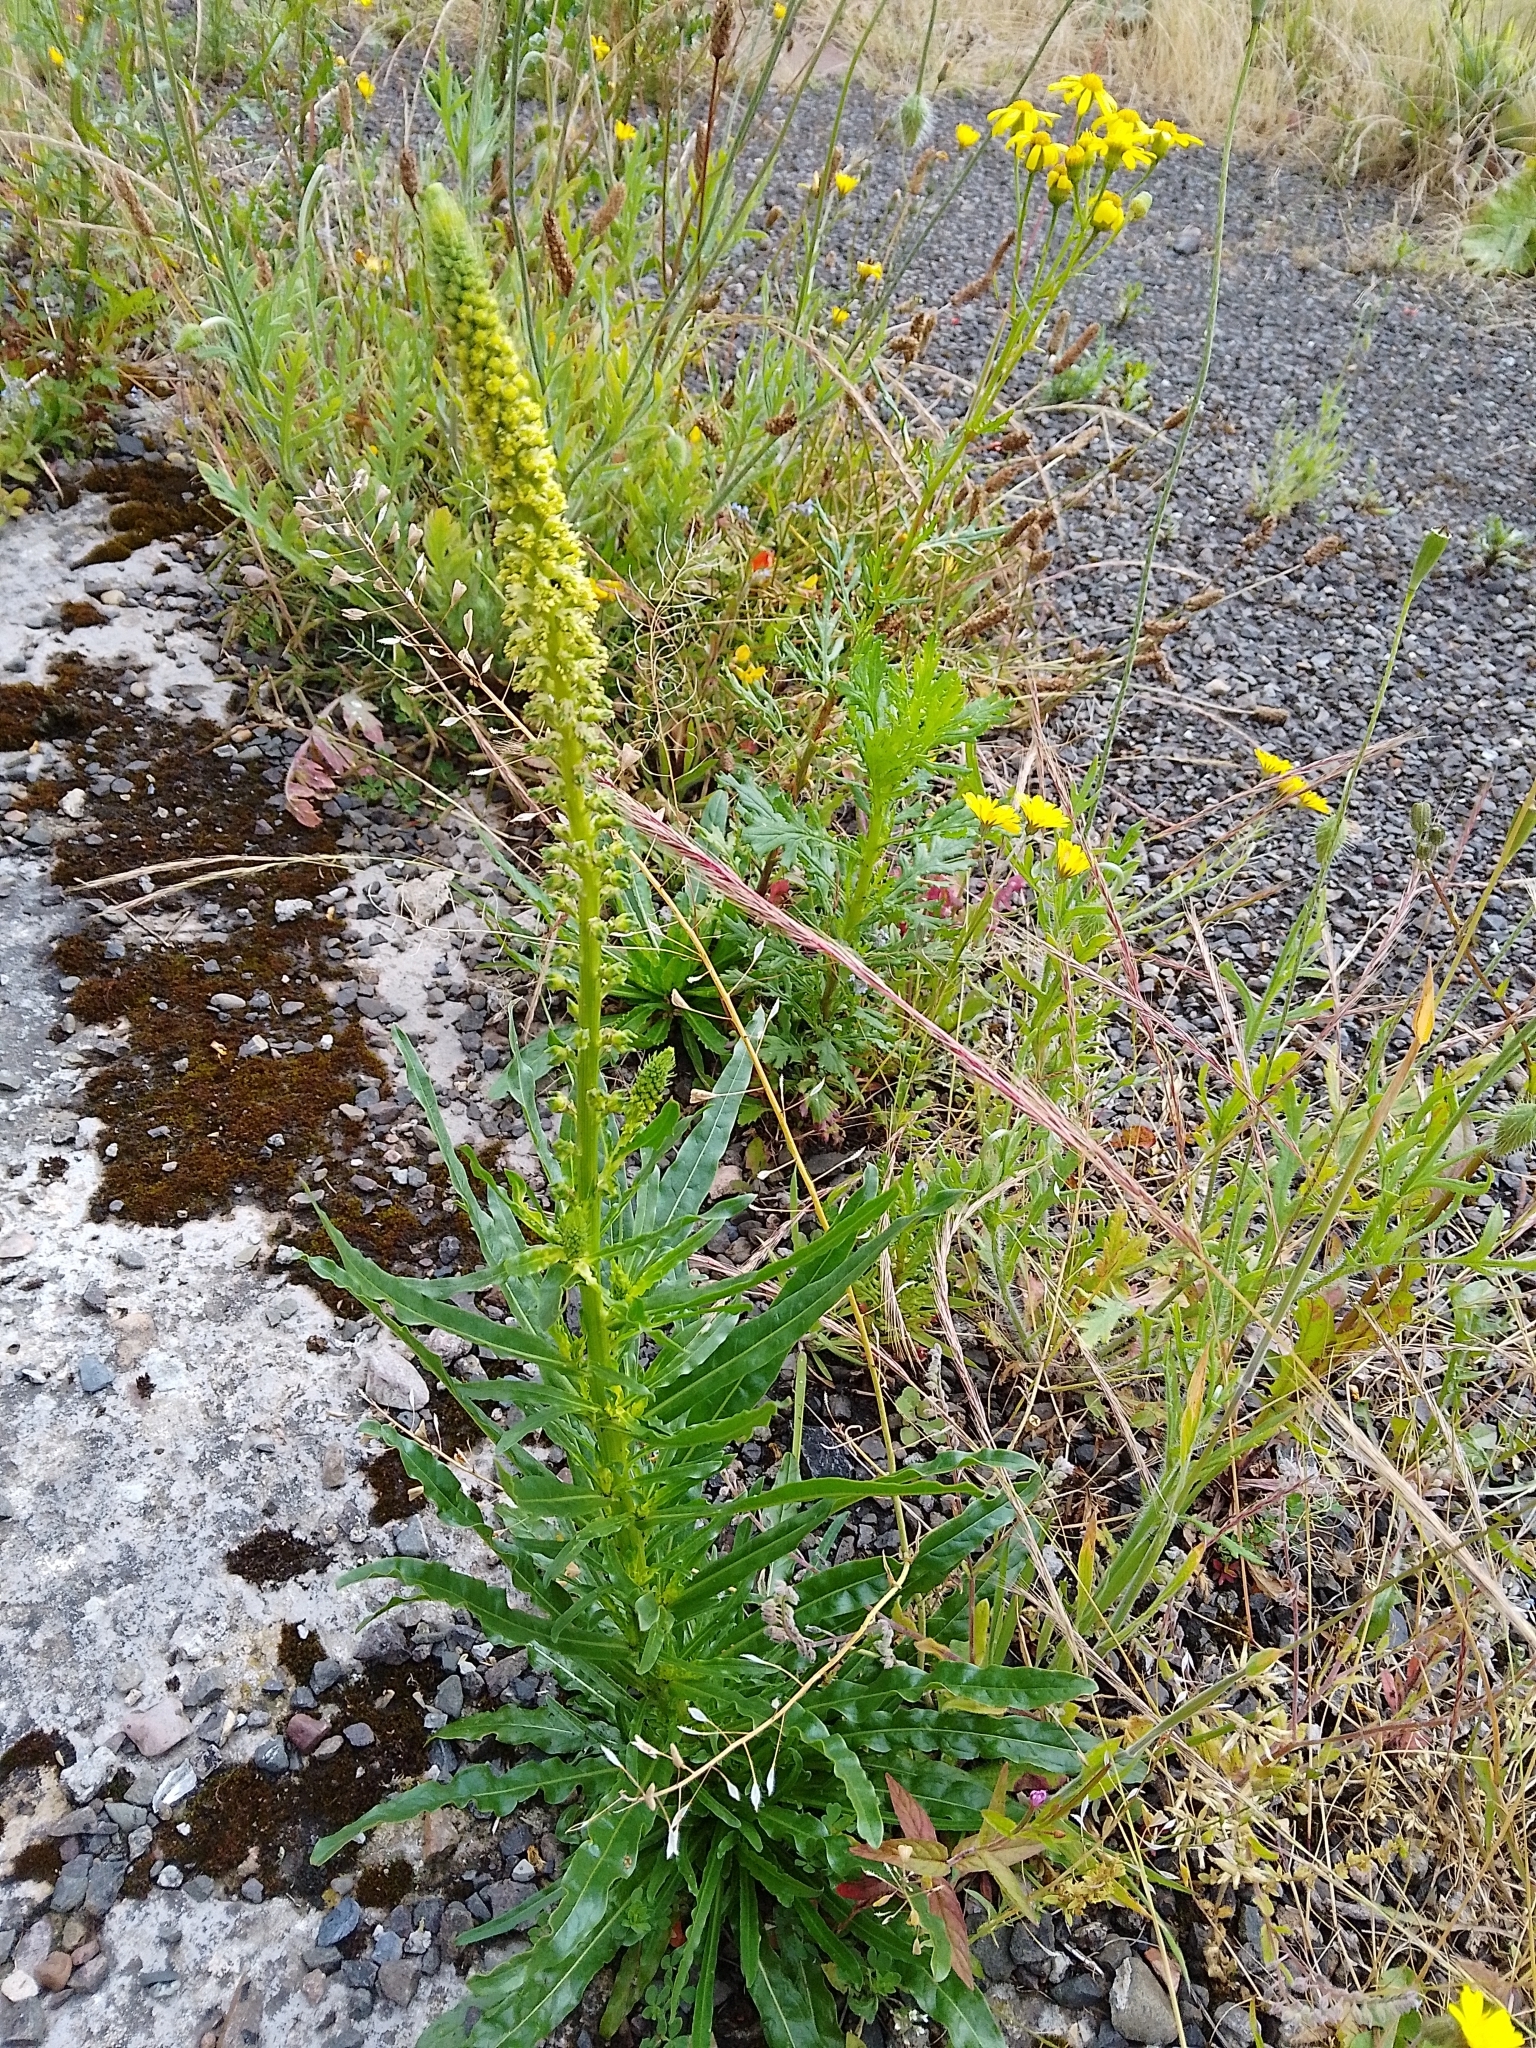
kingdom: Plantae
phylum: Tracheophyta
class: Magnoliopsida
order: Brassicales
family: Resedaceae
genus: Reseda
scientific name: Reseda luteola
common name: Weld
